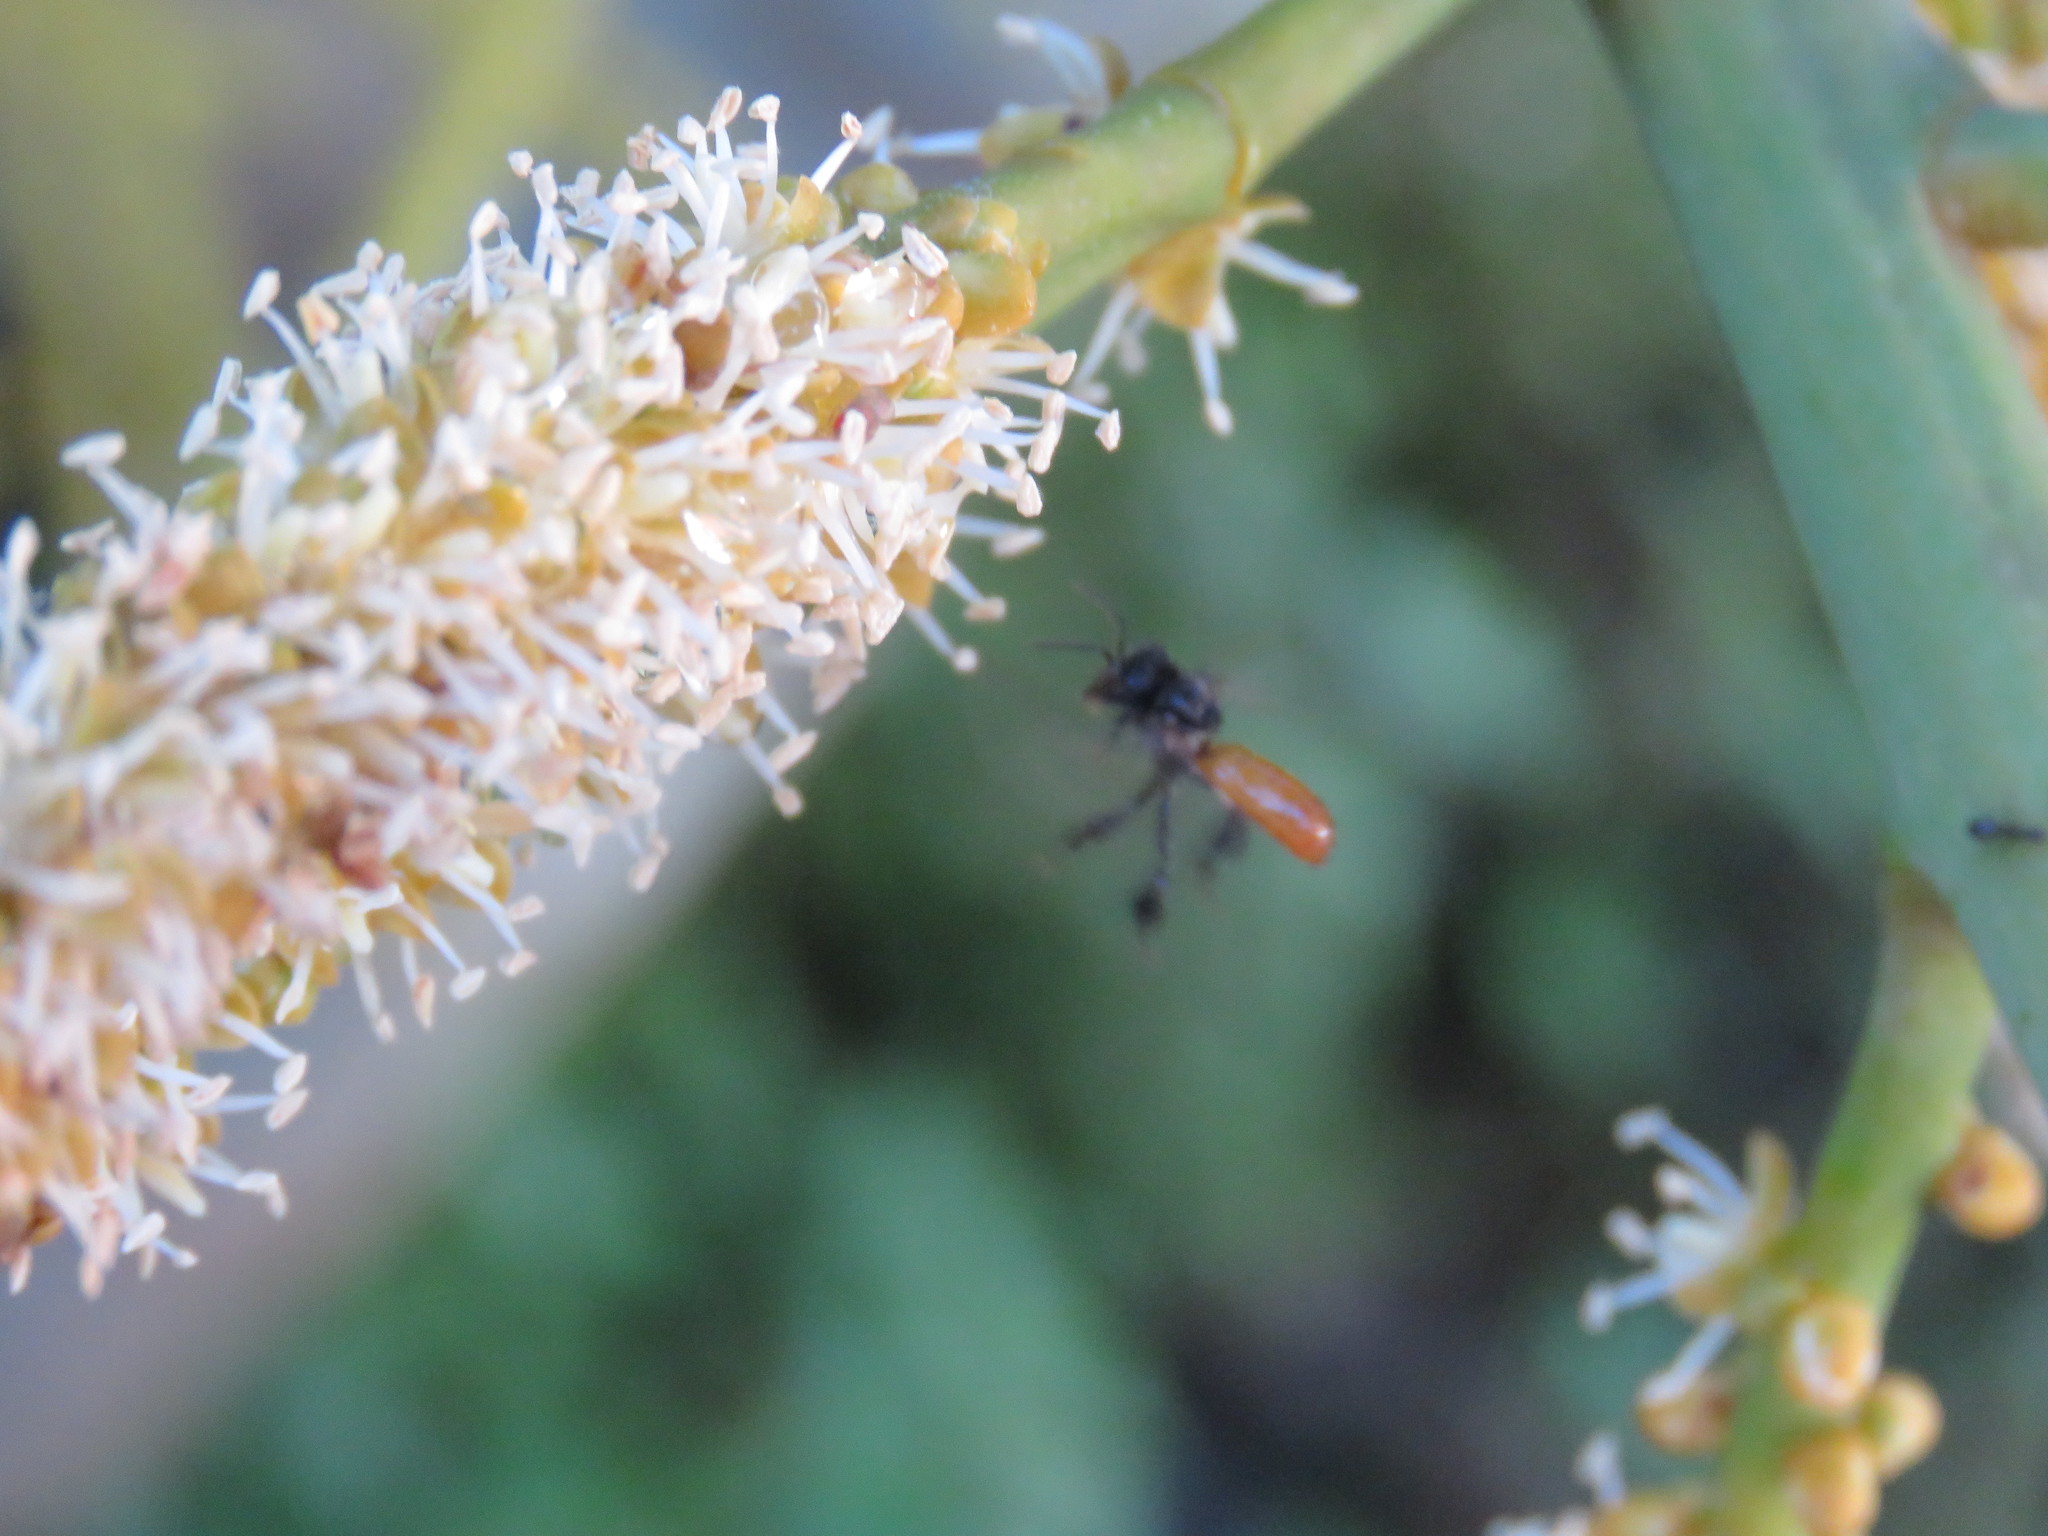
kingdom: Animalia
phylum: Arthropoda
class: Insecta
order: Hymenoptera
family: Apidae
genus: Trigona
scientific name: Trigona fulviventris
